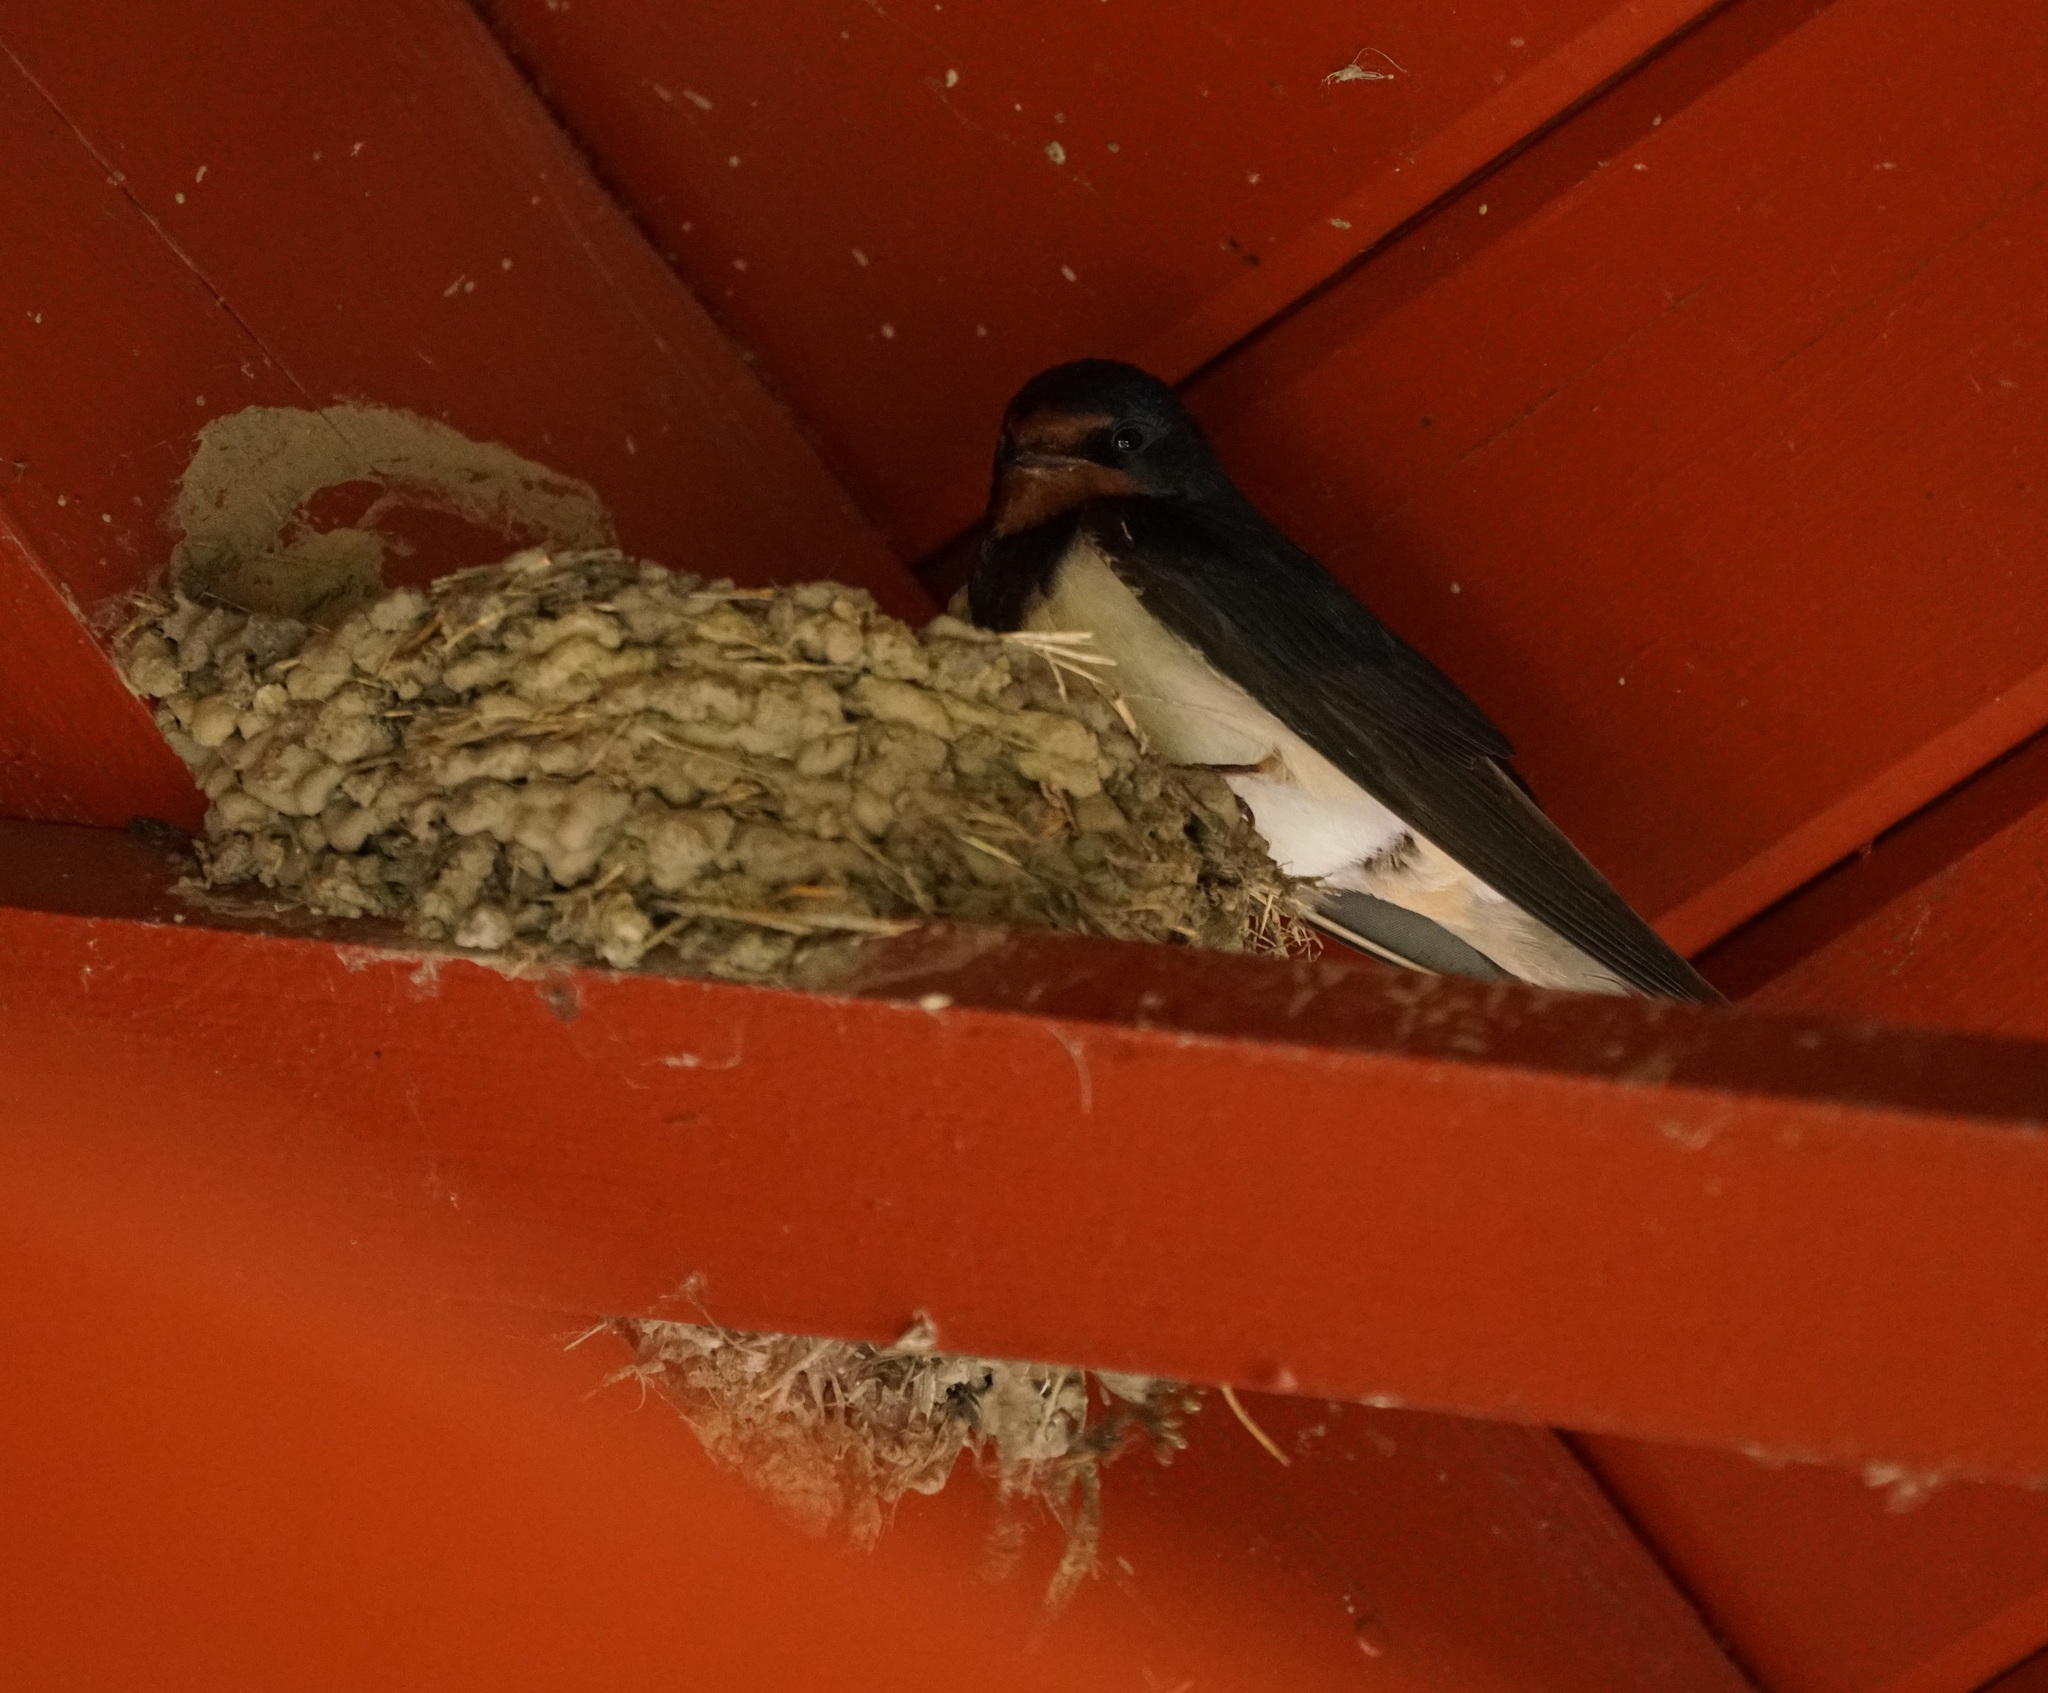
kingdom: Animalia
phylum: Chordata
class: Aves
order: Passeriformes
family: Hirundinidae
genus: Hirundo
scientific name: Hirundo rustica
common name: Barn swallow
